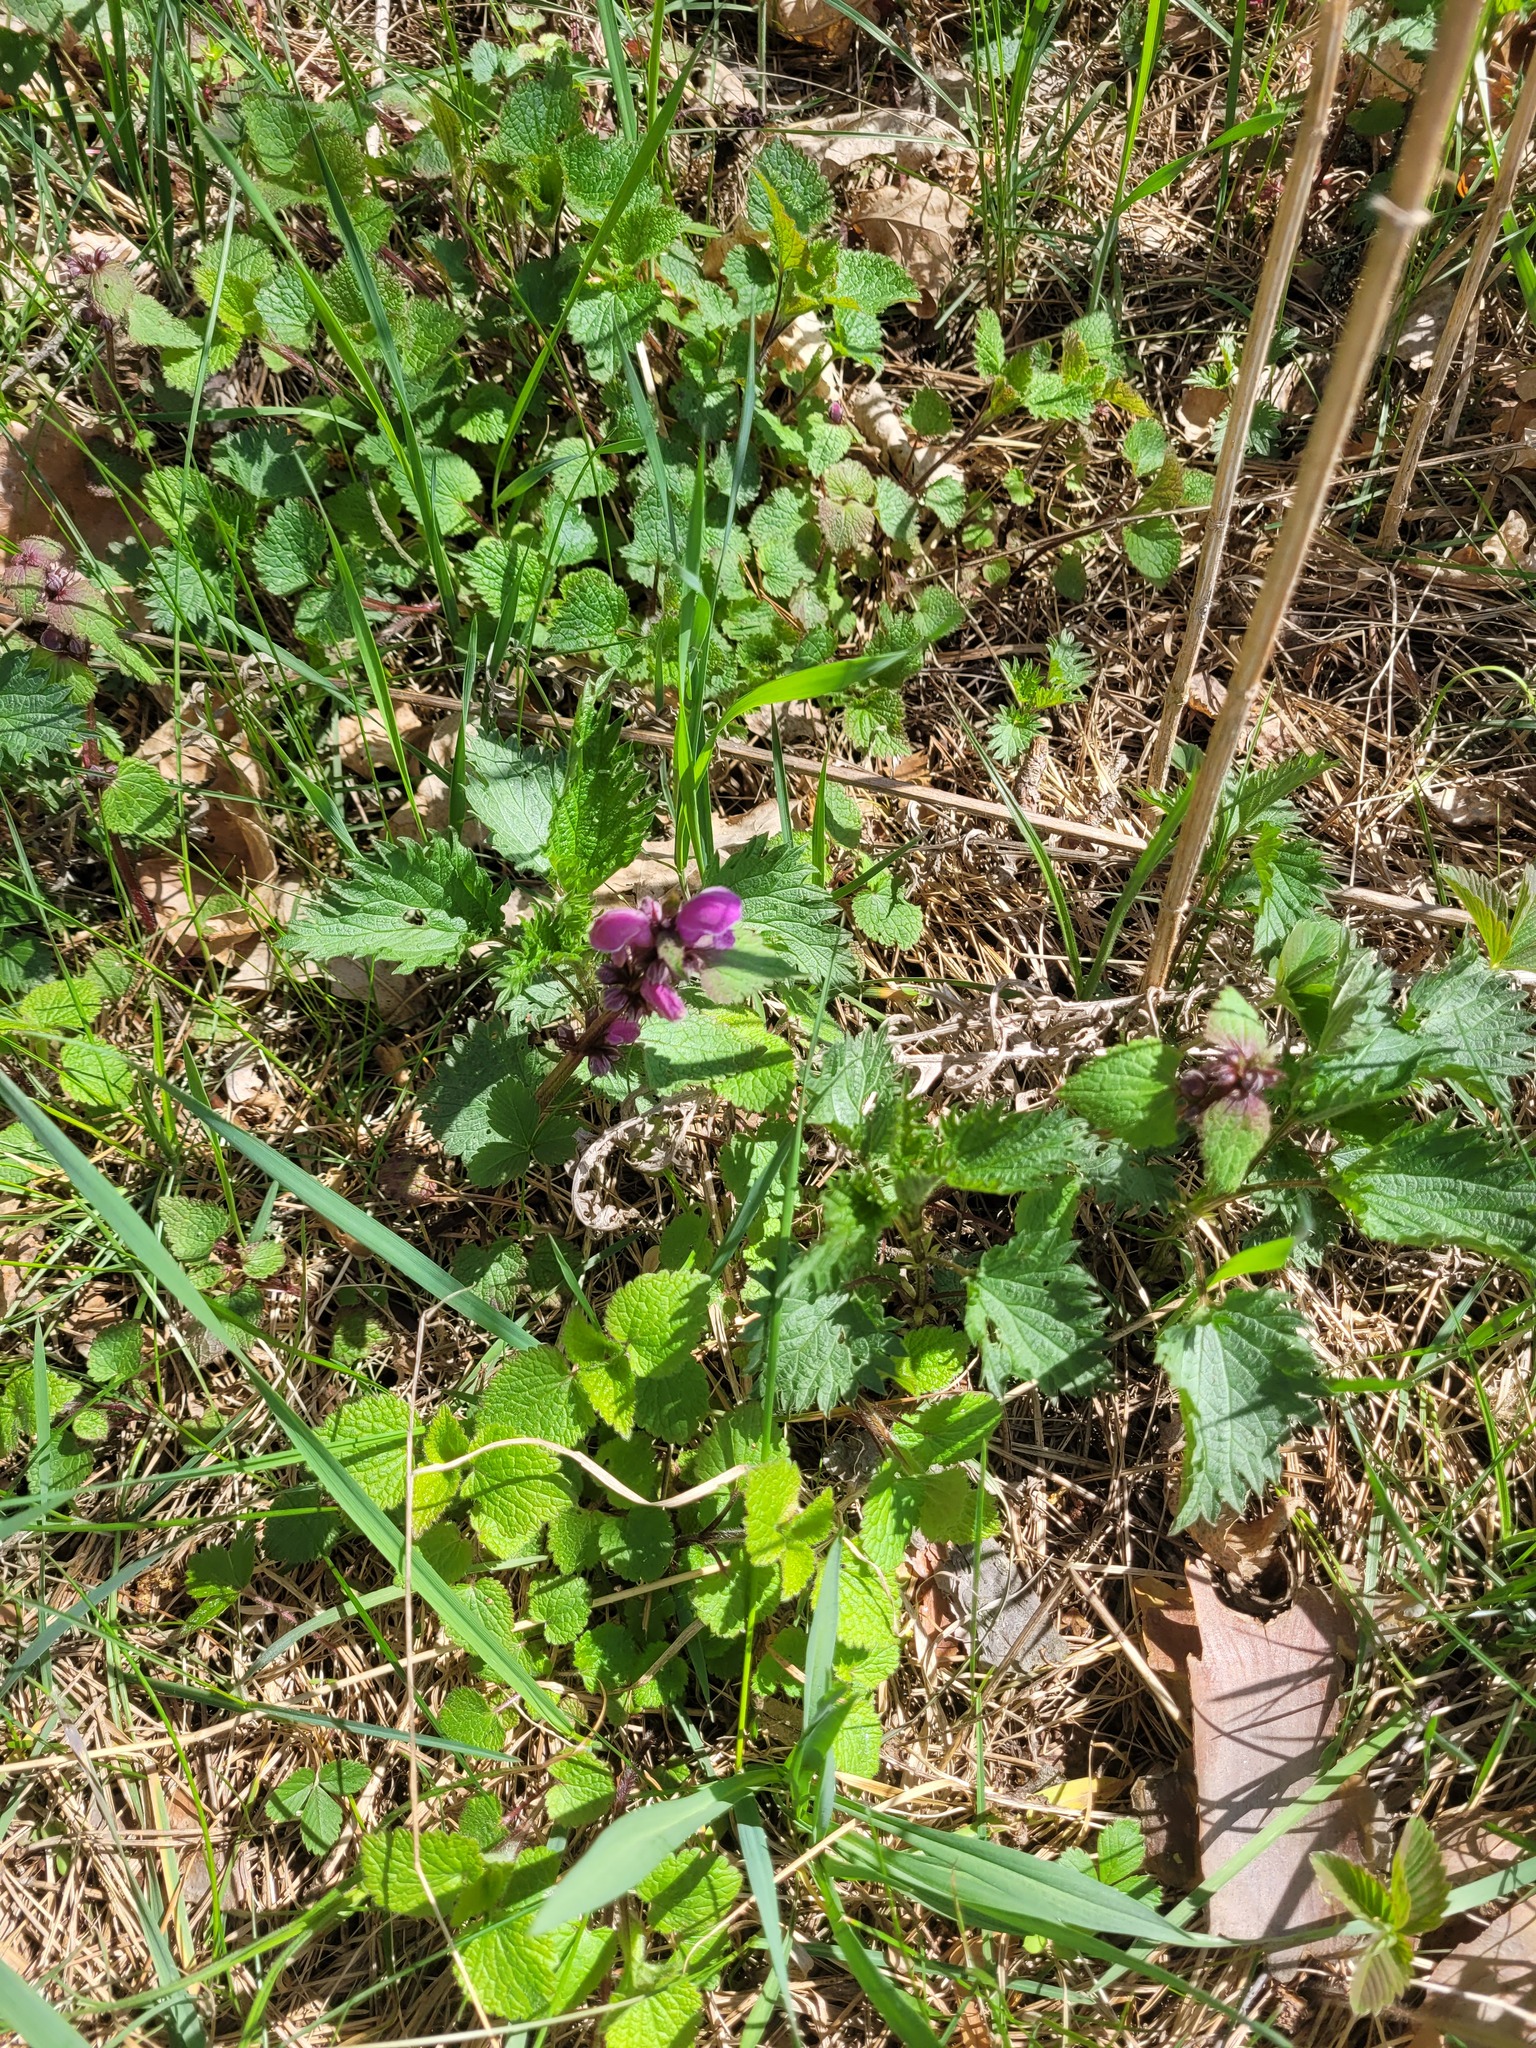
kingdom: Plantae
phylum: Tracheophyta
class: Magnoliopsida
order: Lamiales
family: Lamiaceae
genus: Lamium
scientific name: Lamium maculatum
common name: Spotted dead-nettle
